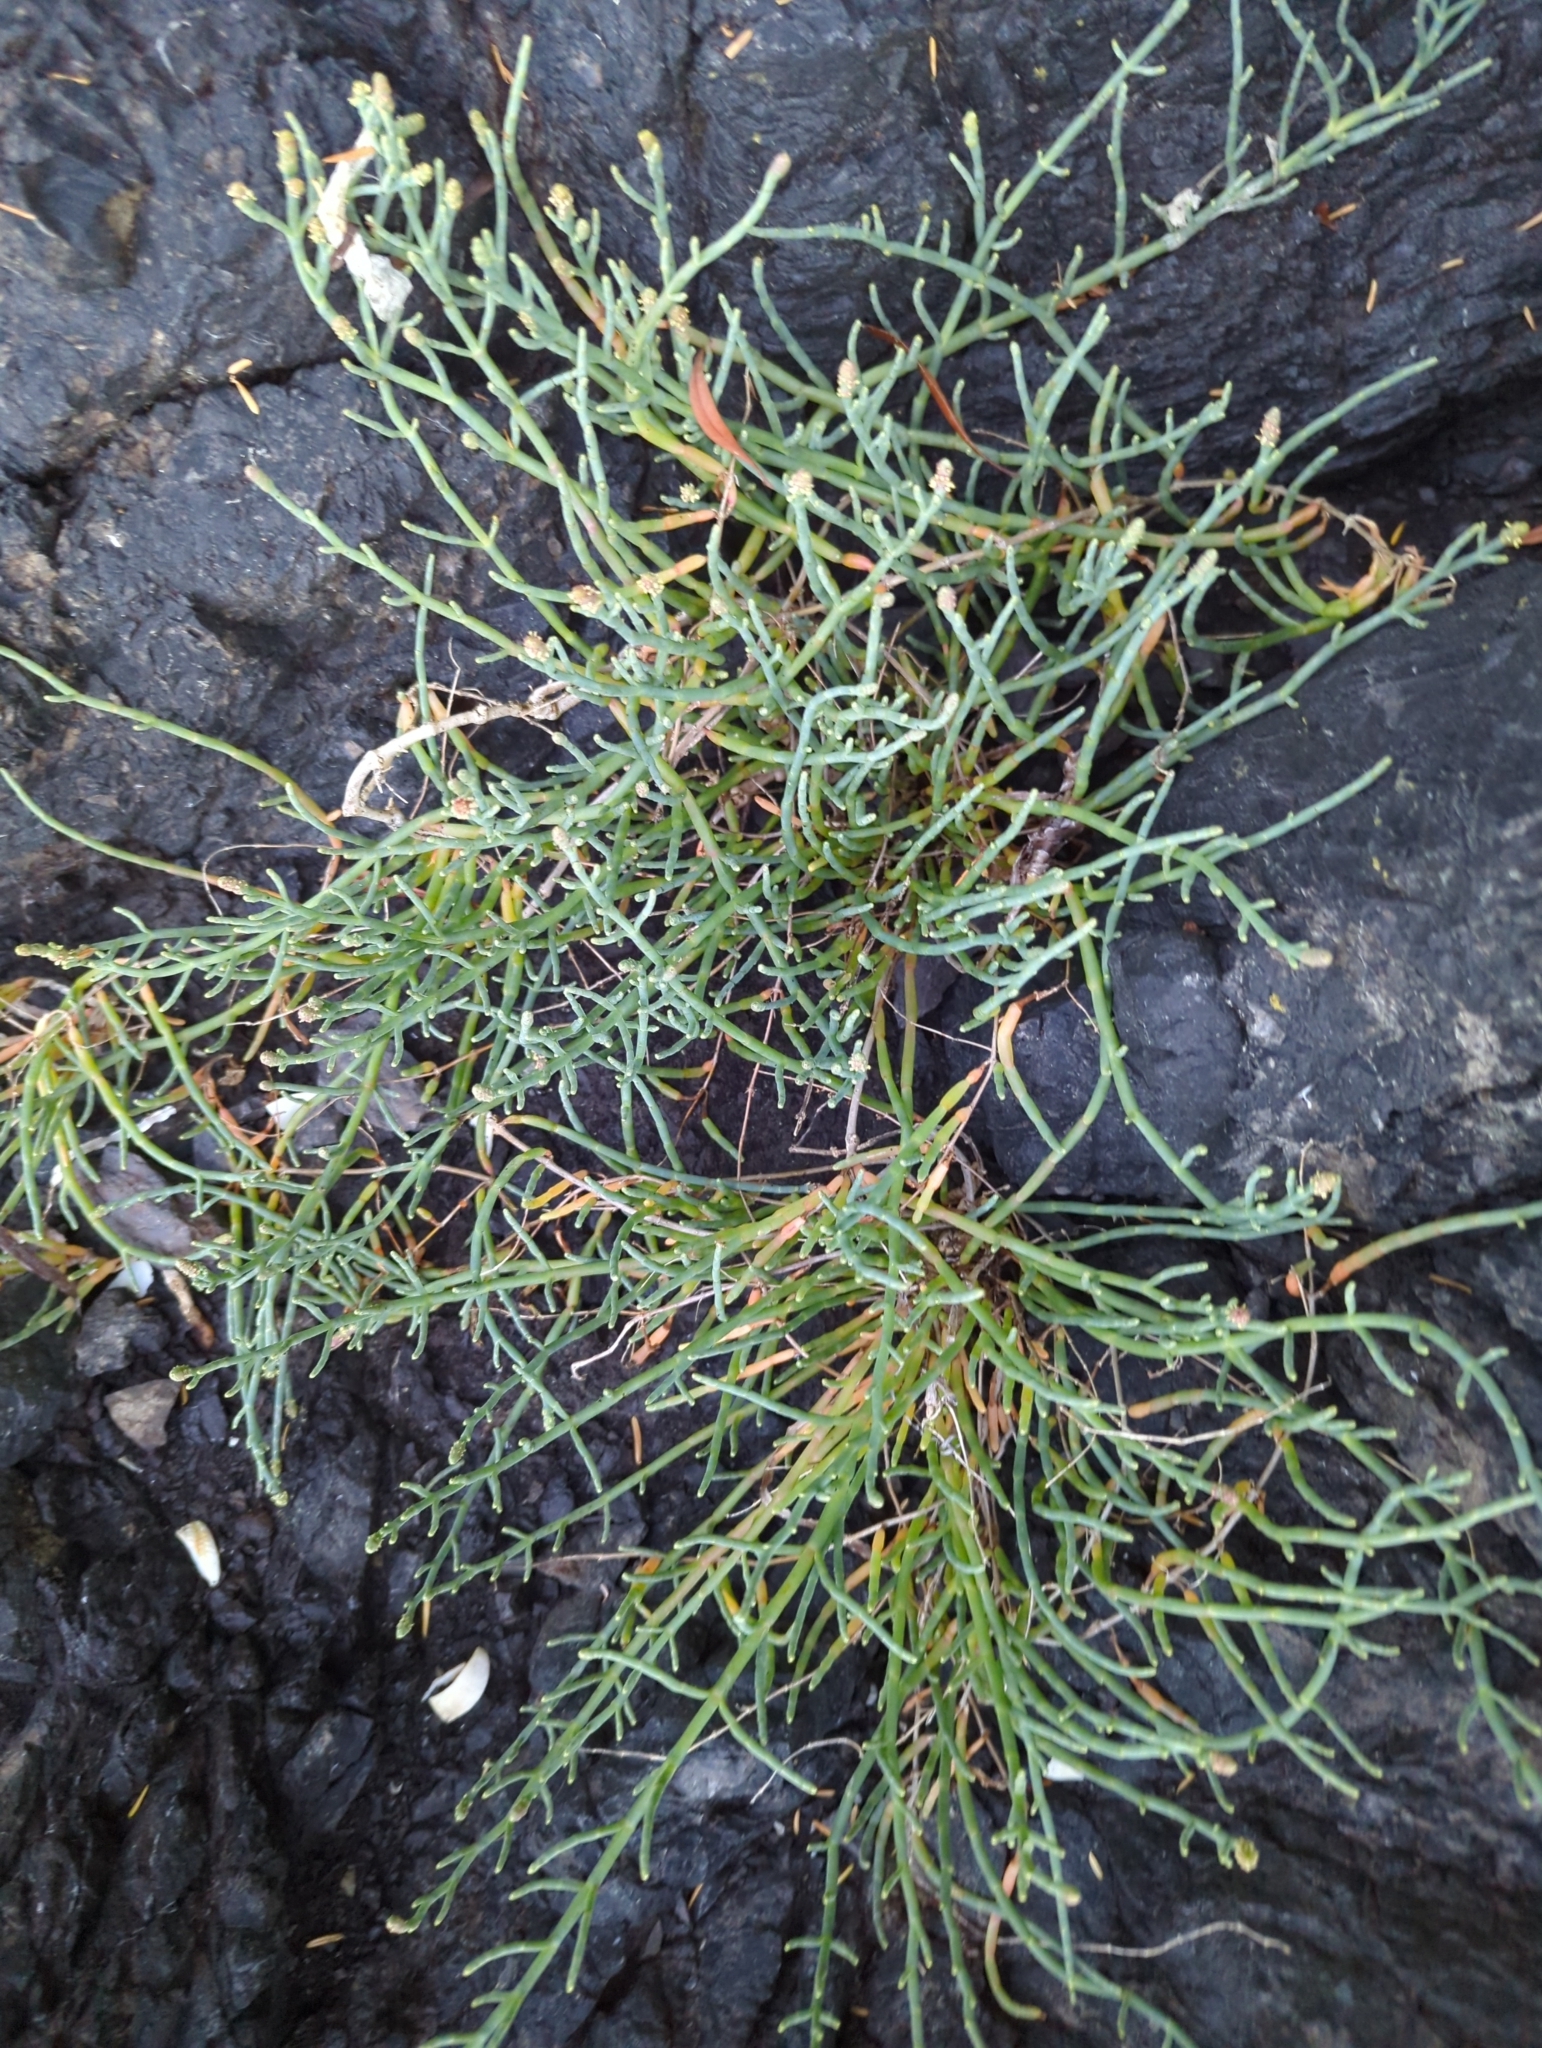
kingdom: Plantae
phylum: Tracheophyta
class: Magnoliopsida
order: Caryophyllales
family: Amaranthaceae
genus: Salicornia
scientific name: Salicornia pacifica
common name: Pacific glasswort
